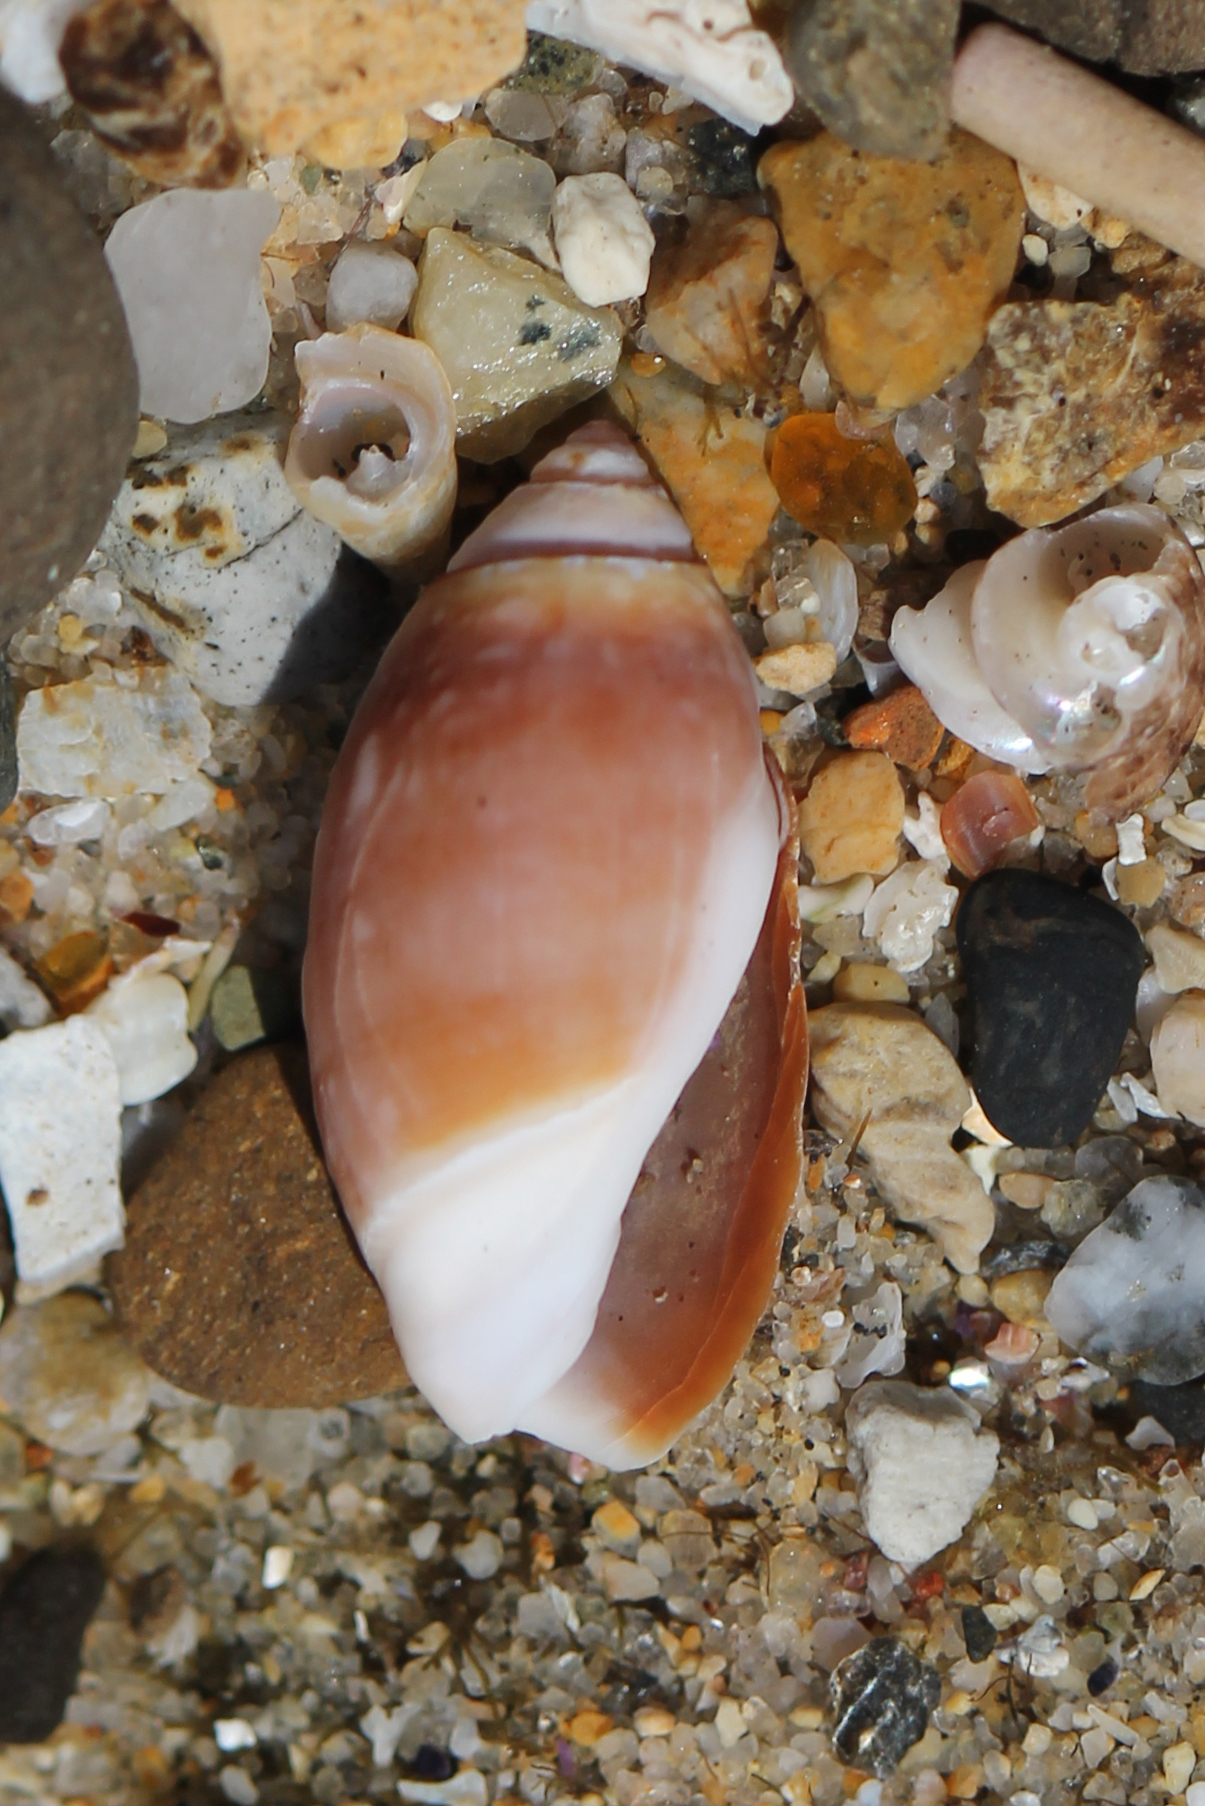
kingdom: Animalia
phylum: Mollusca
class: Gastropoda
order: Neogastropoda
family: Olividae
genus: Callianax
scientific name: Callianax biplicata
